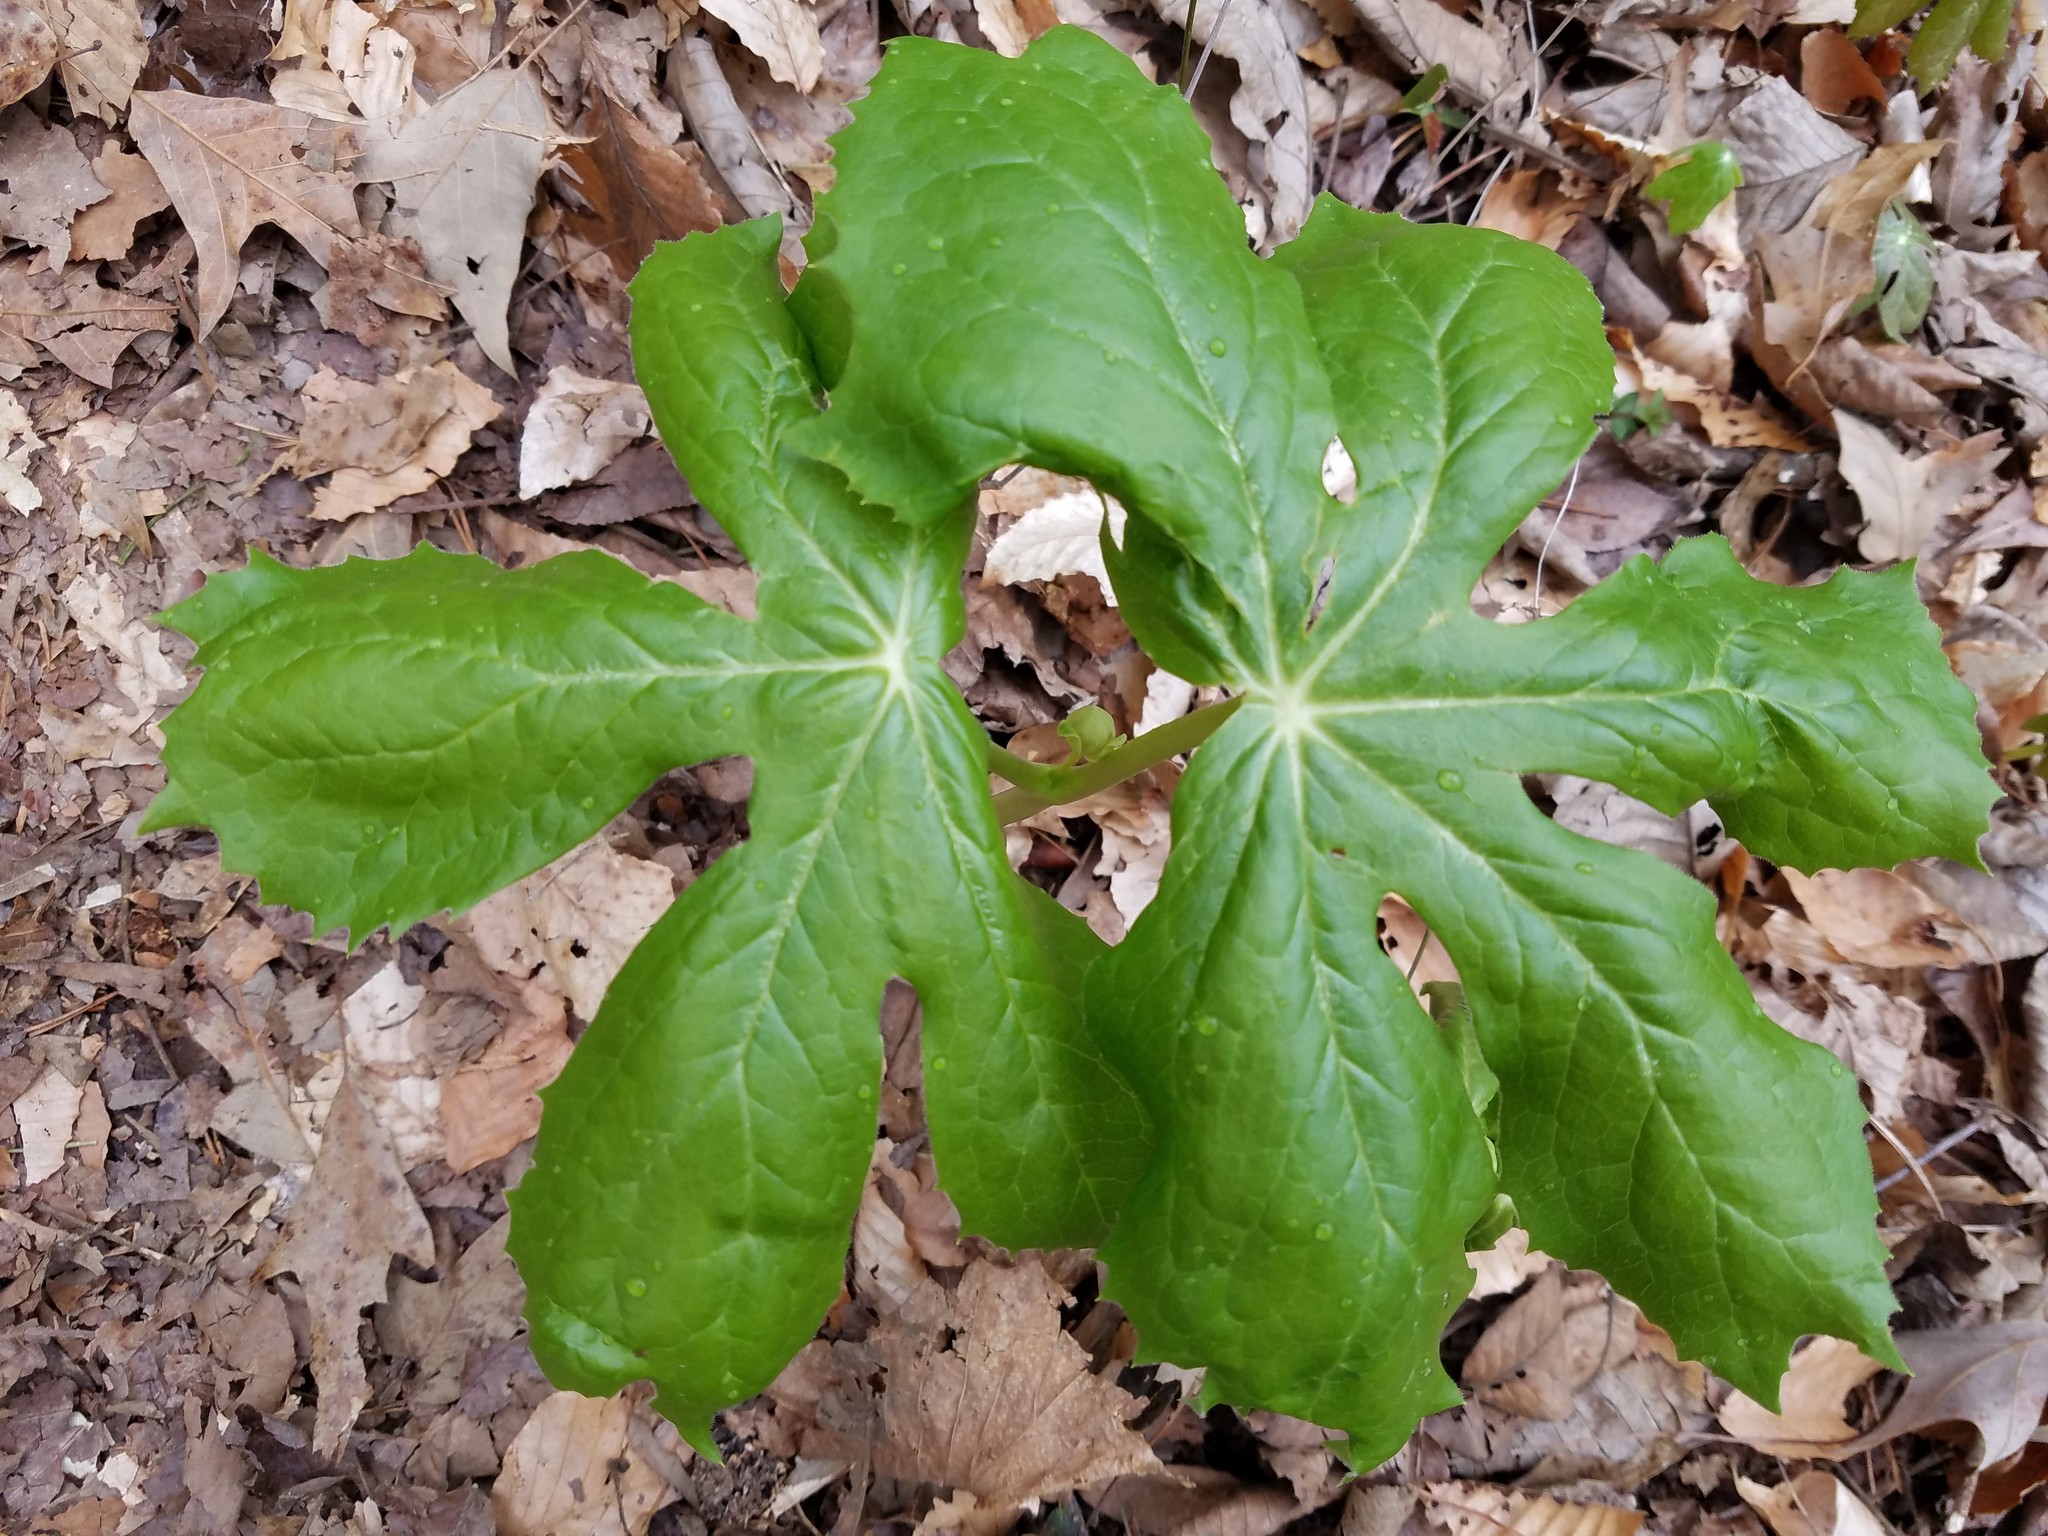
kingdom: Plantae
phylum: Tracheophyta
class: Magnoliopsida
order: Ranunculales
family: Berberidaceae
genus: Podophyllum
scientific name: Podophyllum peltatum
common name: Wild mandrake
